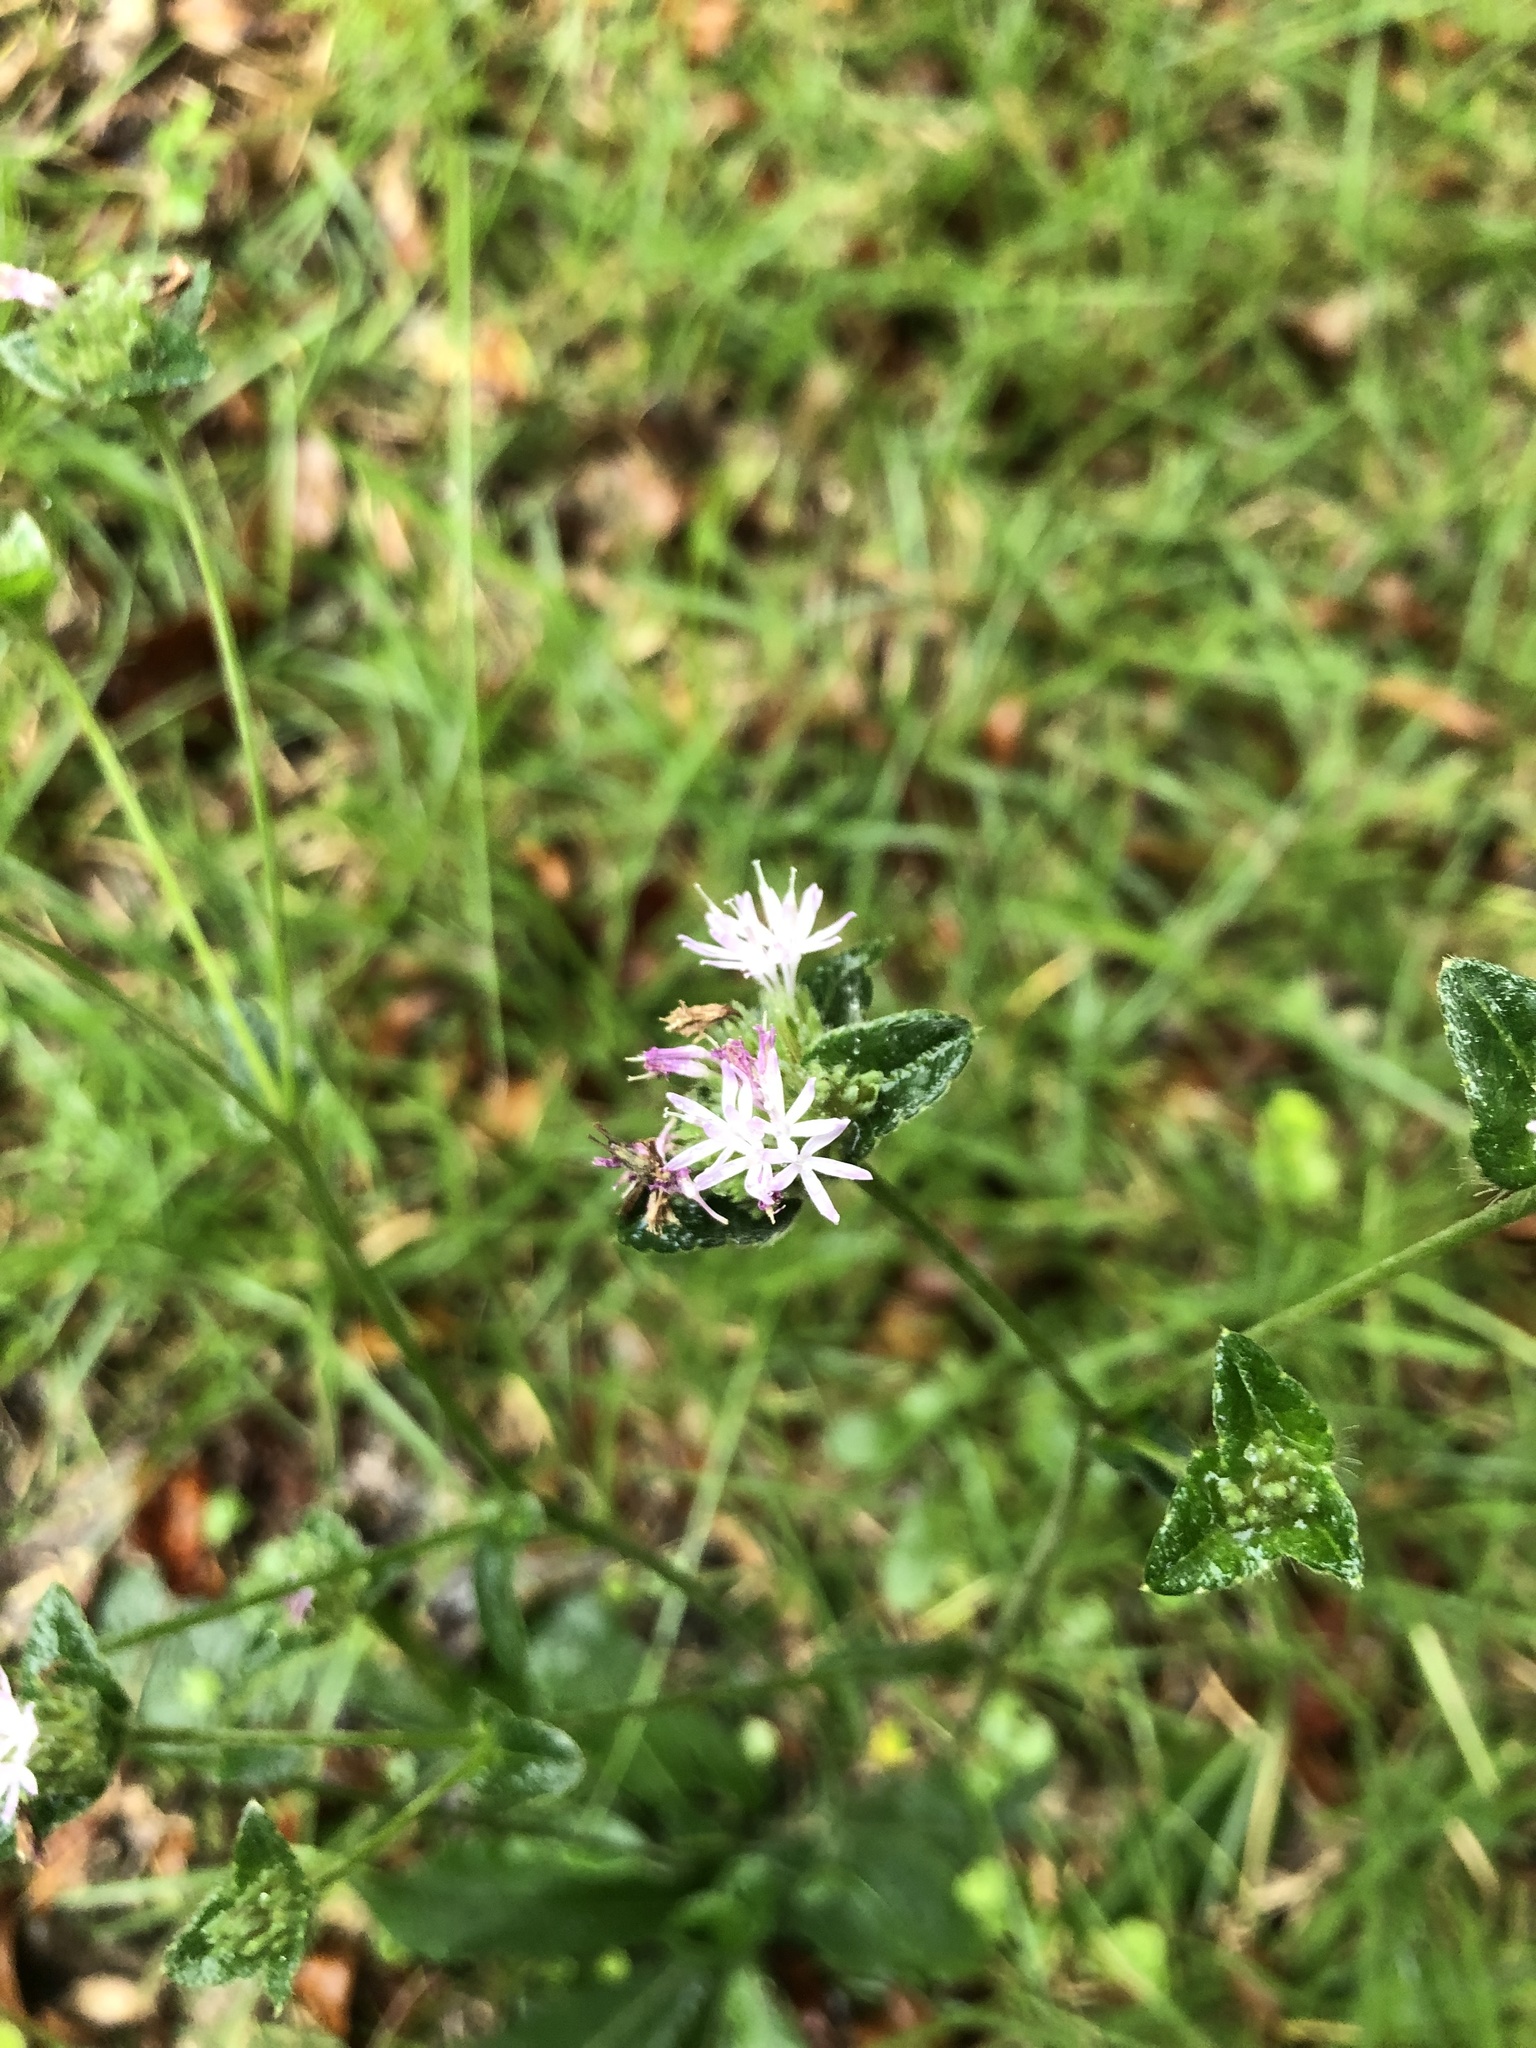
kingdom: Plantae
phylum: Tracheophyta
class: Magnoliopsida
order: Asterales
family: Asteraceae
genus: Elephantopus
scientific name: Elephantopus elatus
